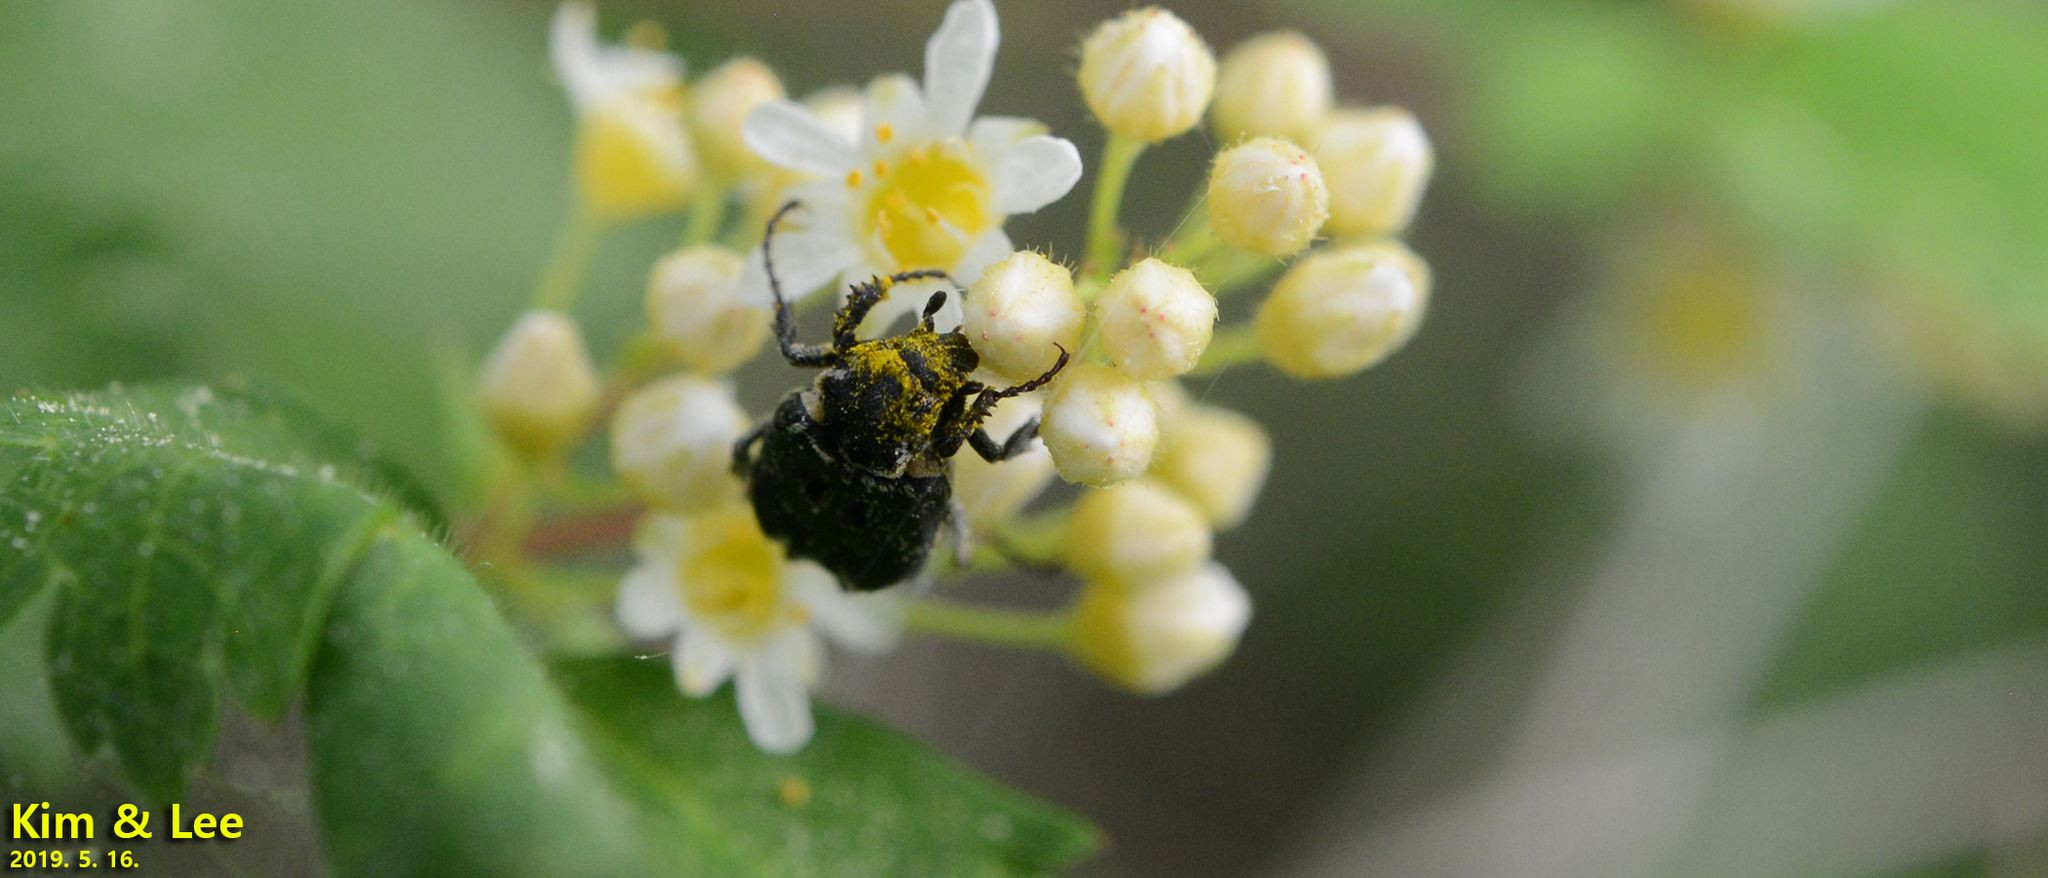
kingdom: Animalia
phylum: Arthropoda
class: Insecta
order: Coleoptera
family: Scarabaeidae
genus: Nipponovalgus
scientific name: Nipponovalgus angusticollis
